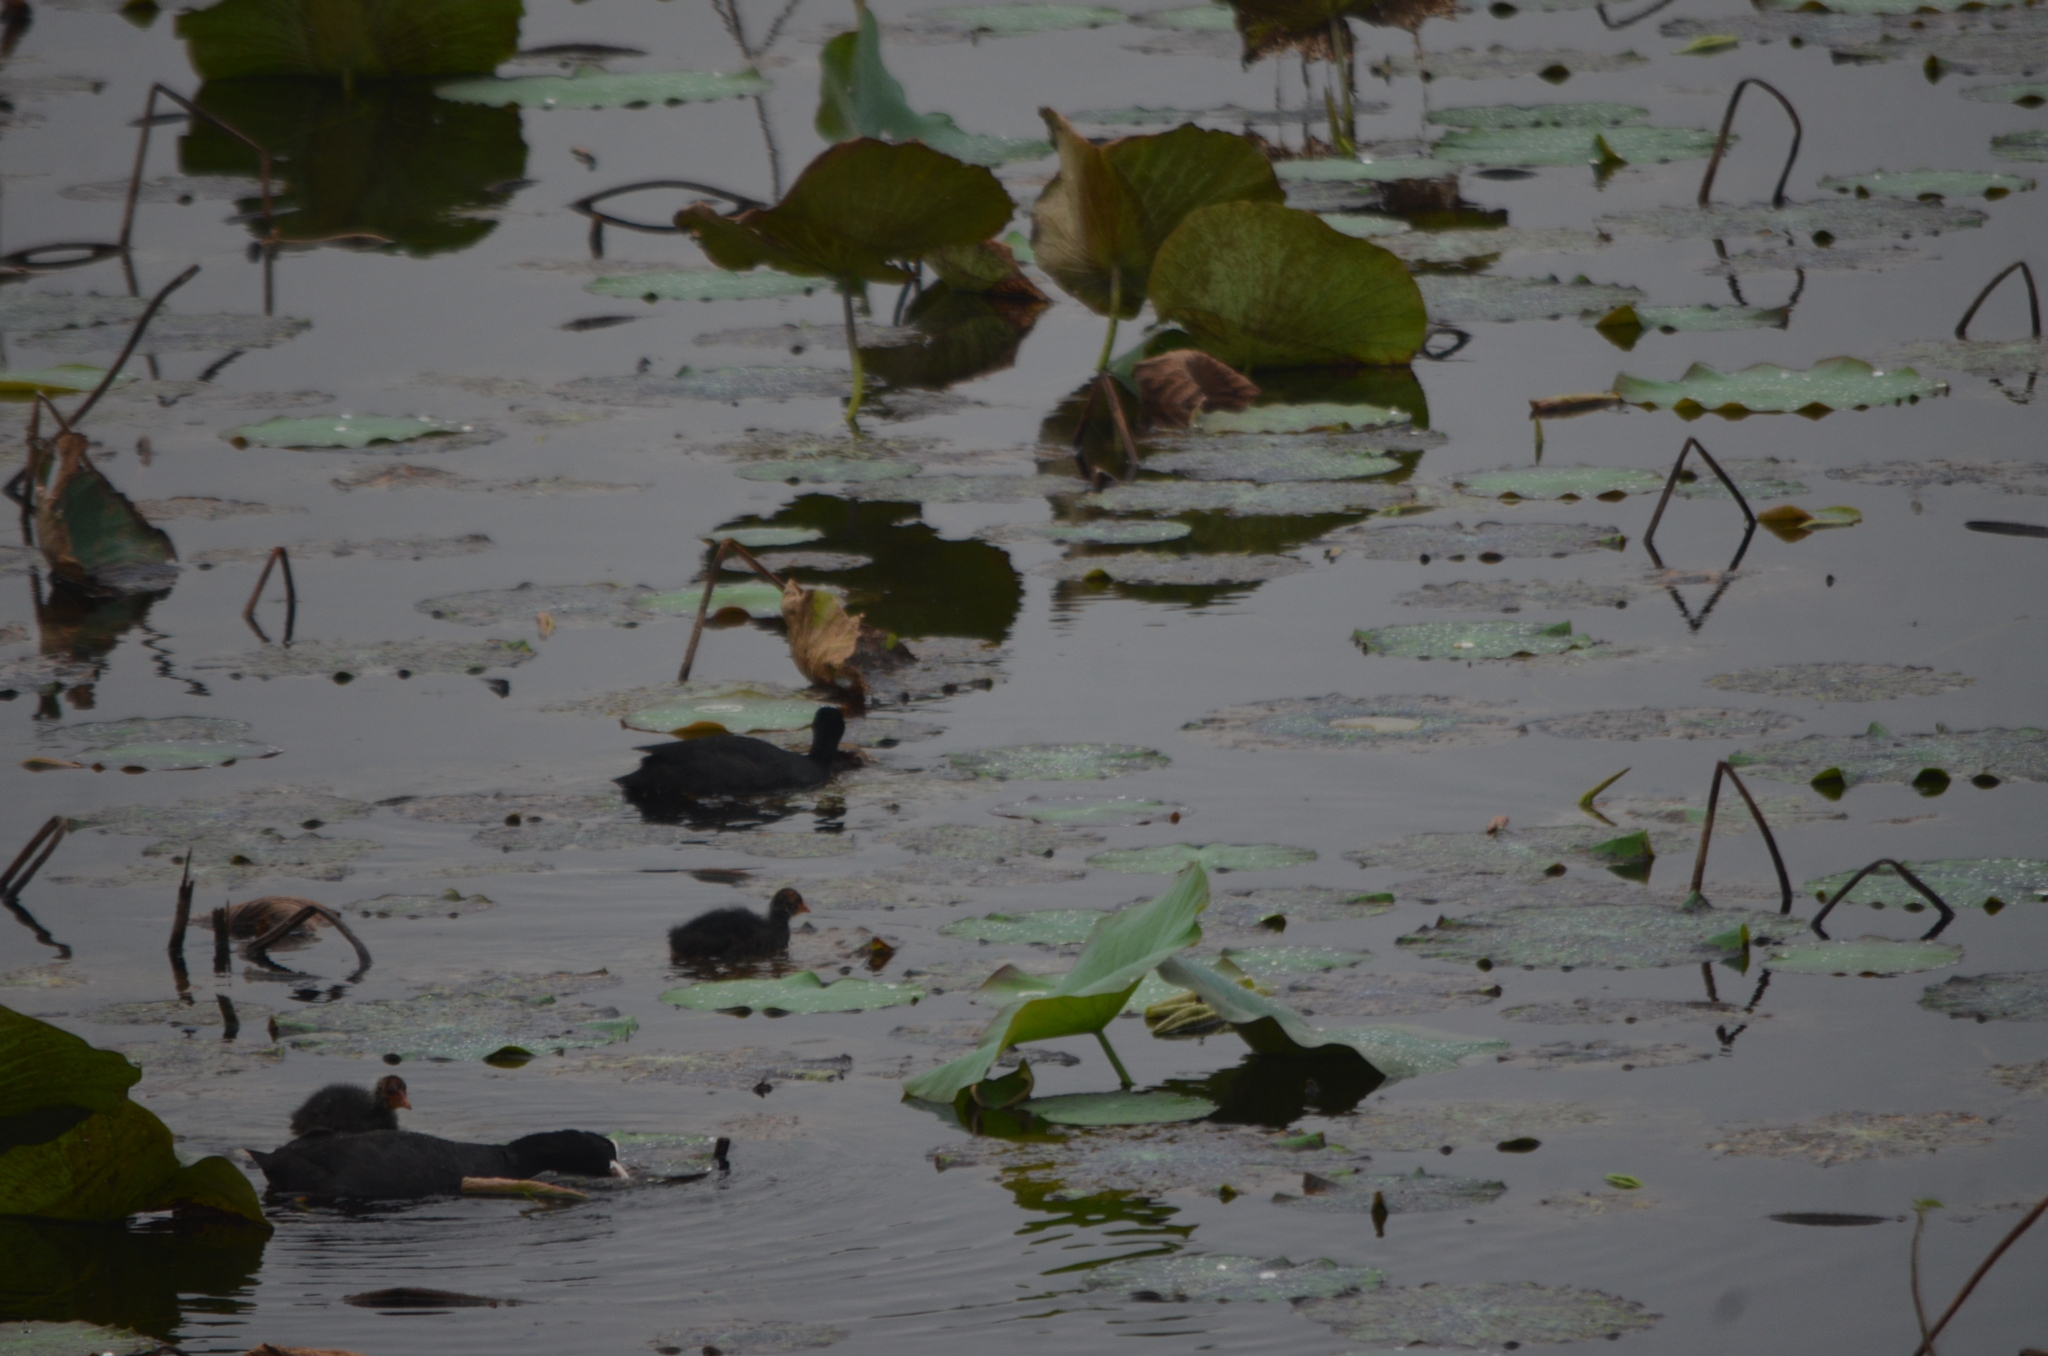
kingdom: Animalia
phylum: Chordata
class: Aves
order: Gruiformes
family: Rallidae
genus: Fulica
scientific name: Fulica atra
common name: Eurasian coot
